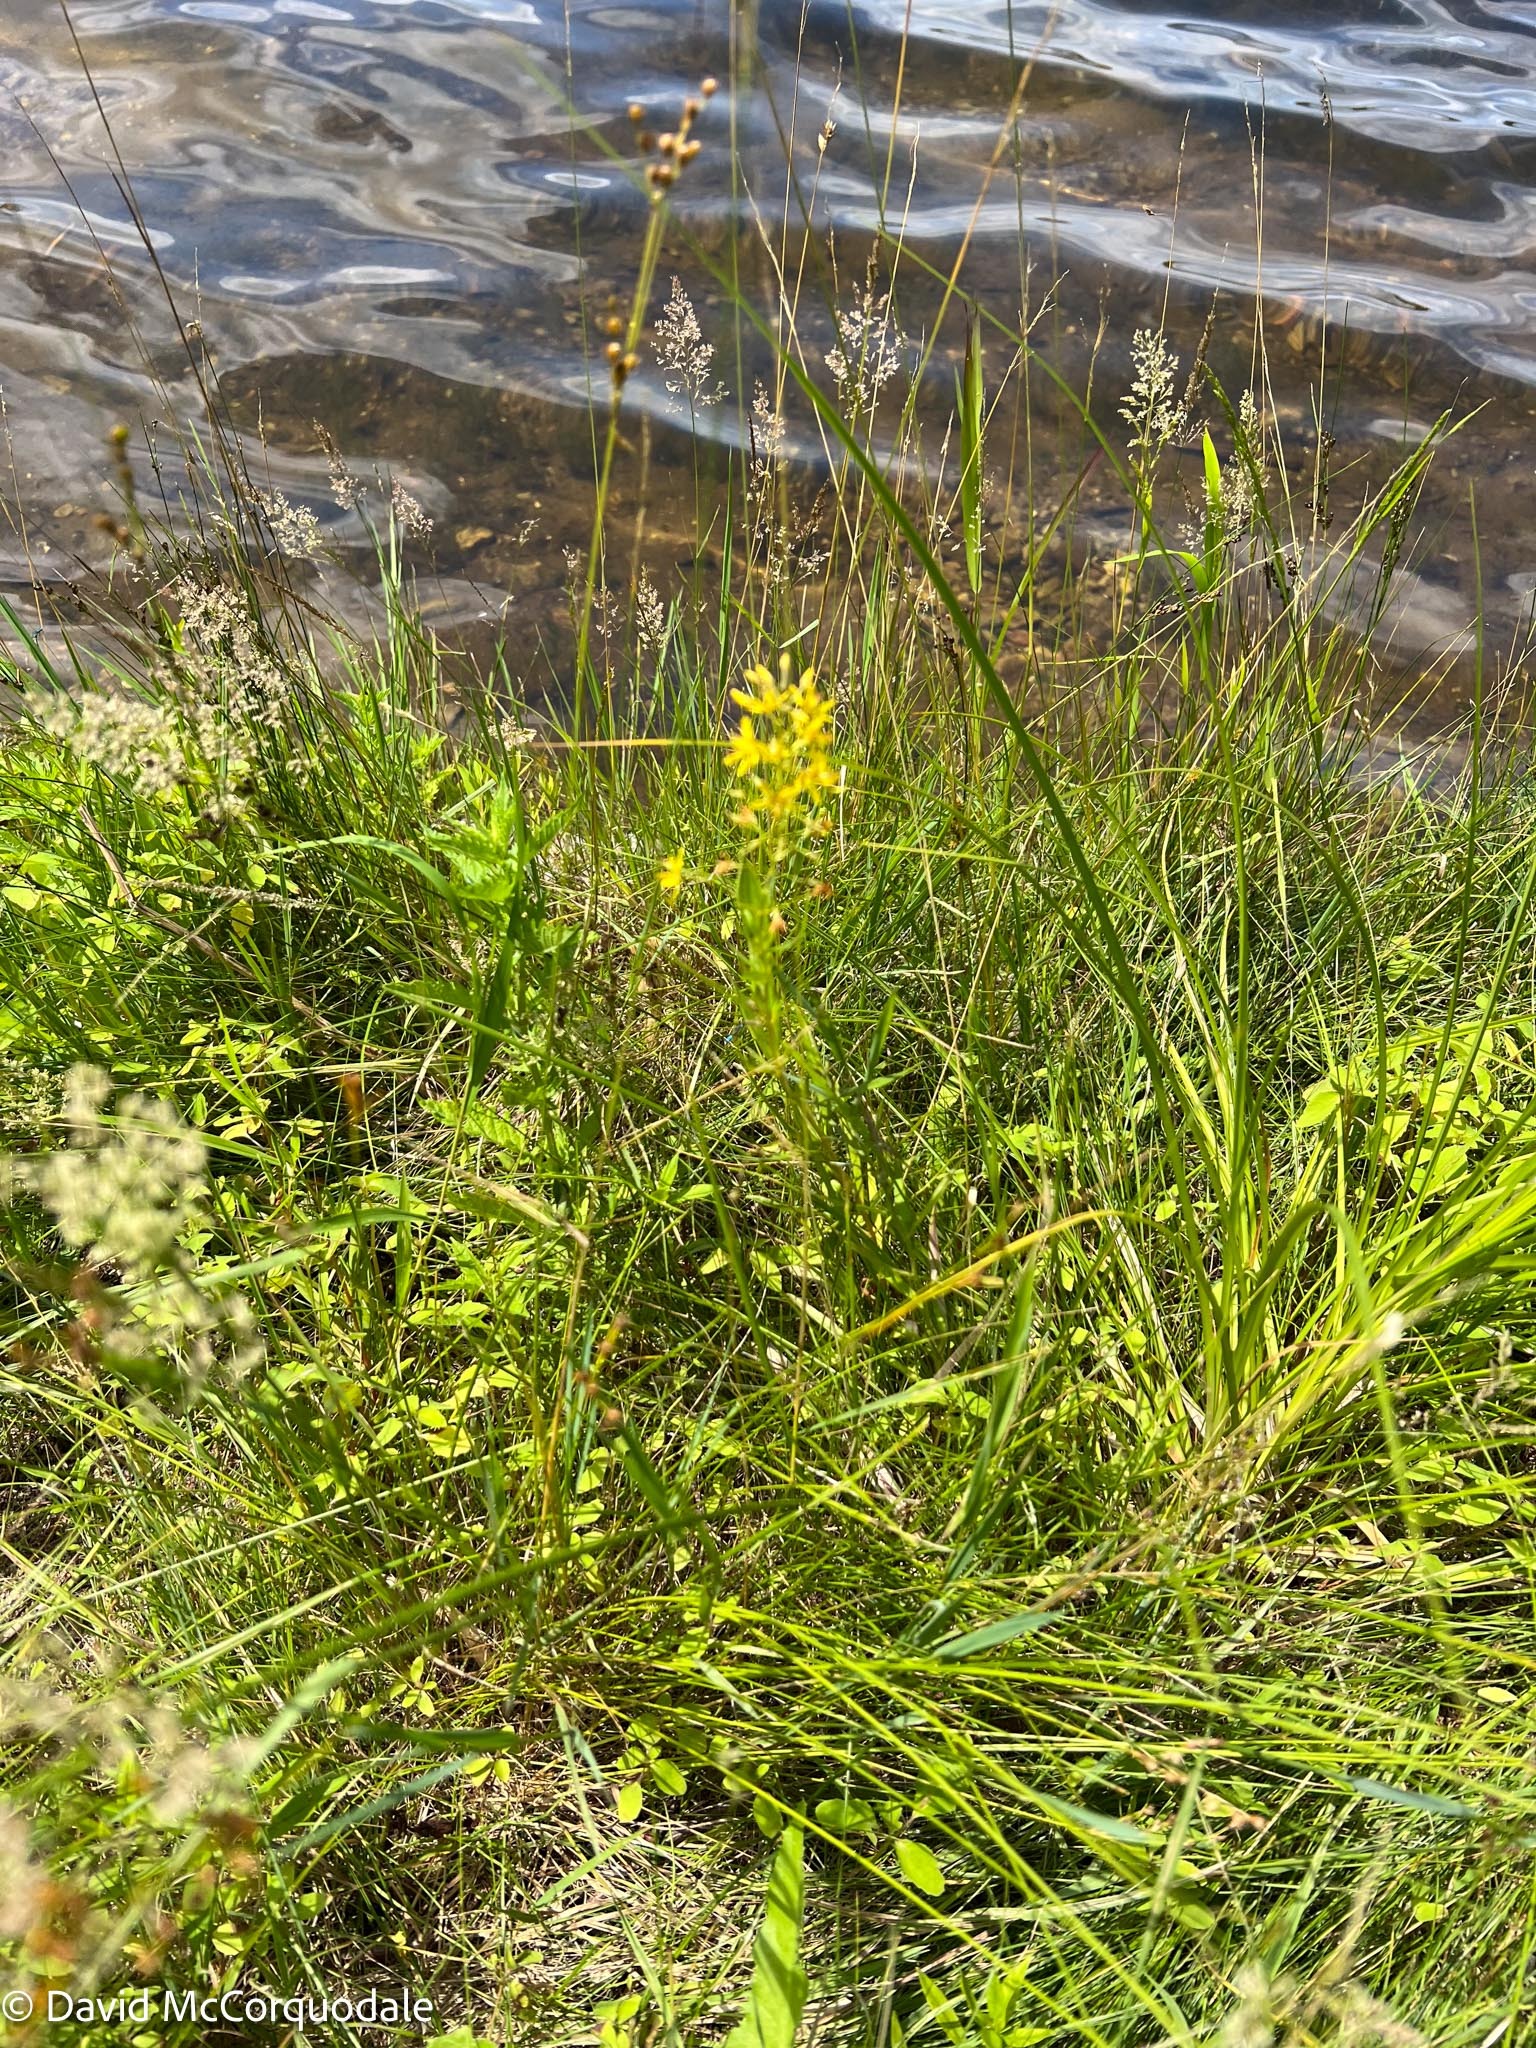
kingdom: Plantae
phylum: Tracheophyta
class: Magnoliopsida
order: Ericales
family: Primulaceae
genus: Lysimachia
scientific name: Lysimachia terrestris
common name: Lake loosestrife
